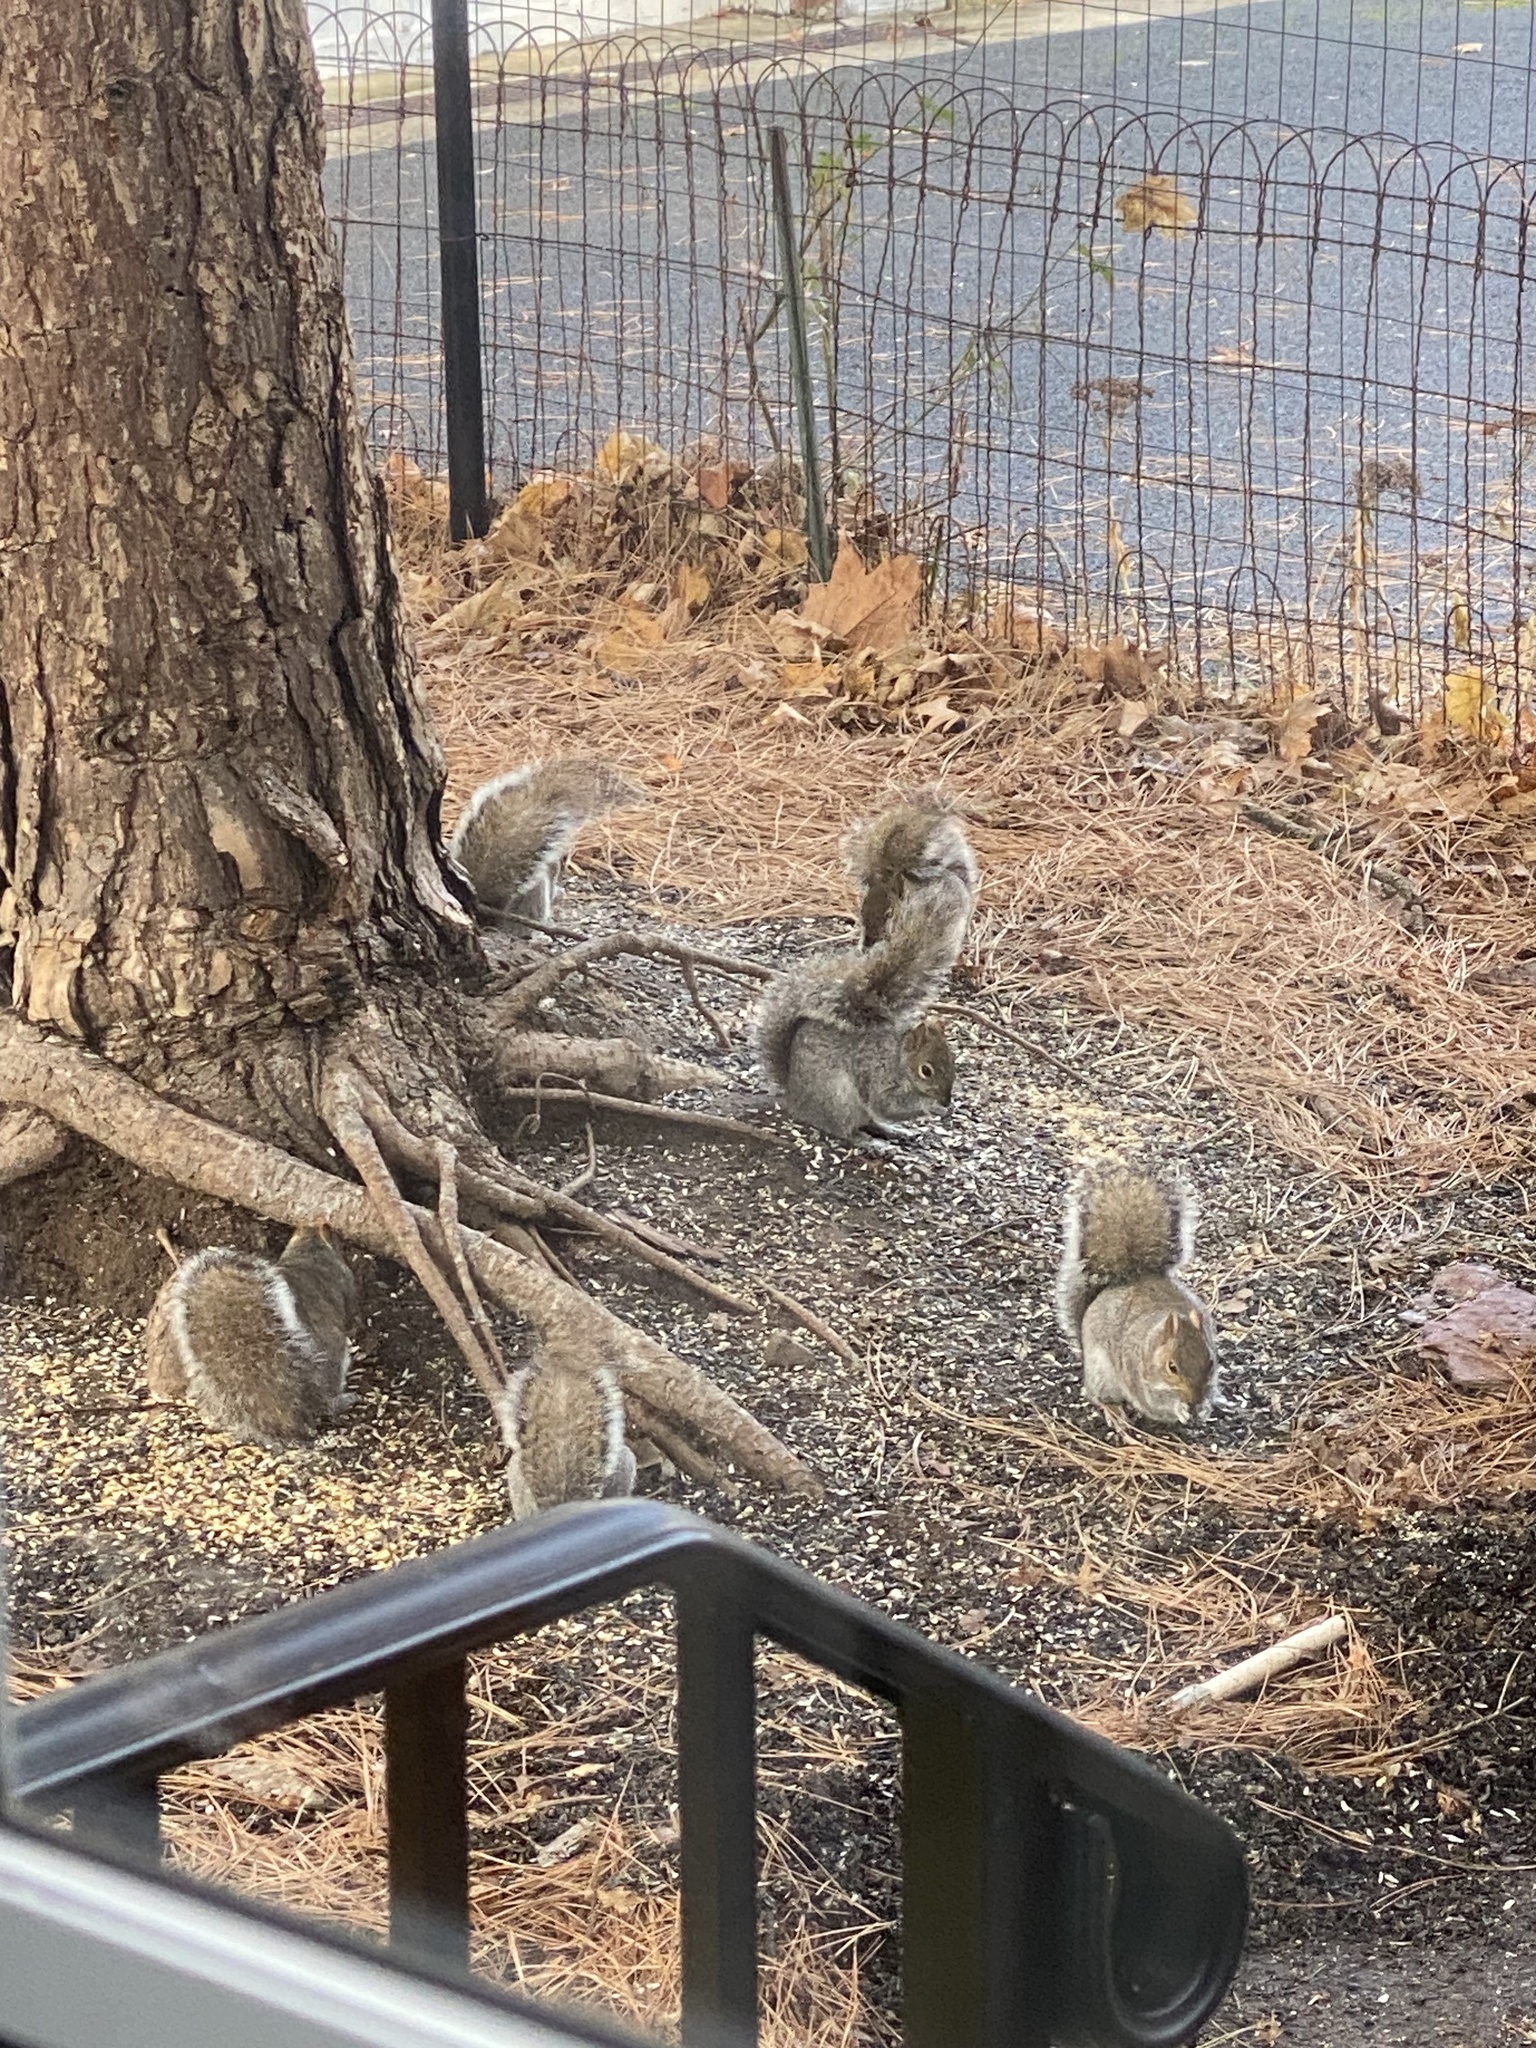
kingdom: Animalia
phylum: Chordata
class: Mammalia
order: Rodentia
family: Sciuridae
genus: Sciurus
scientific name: Sciurus carolinensis
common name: Eastern gray squirrel
